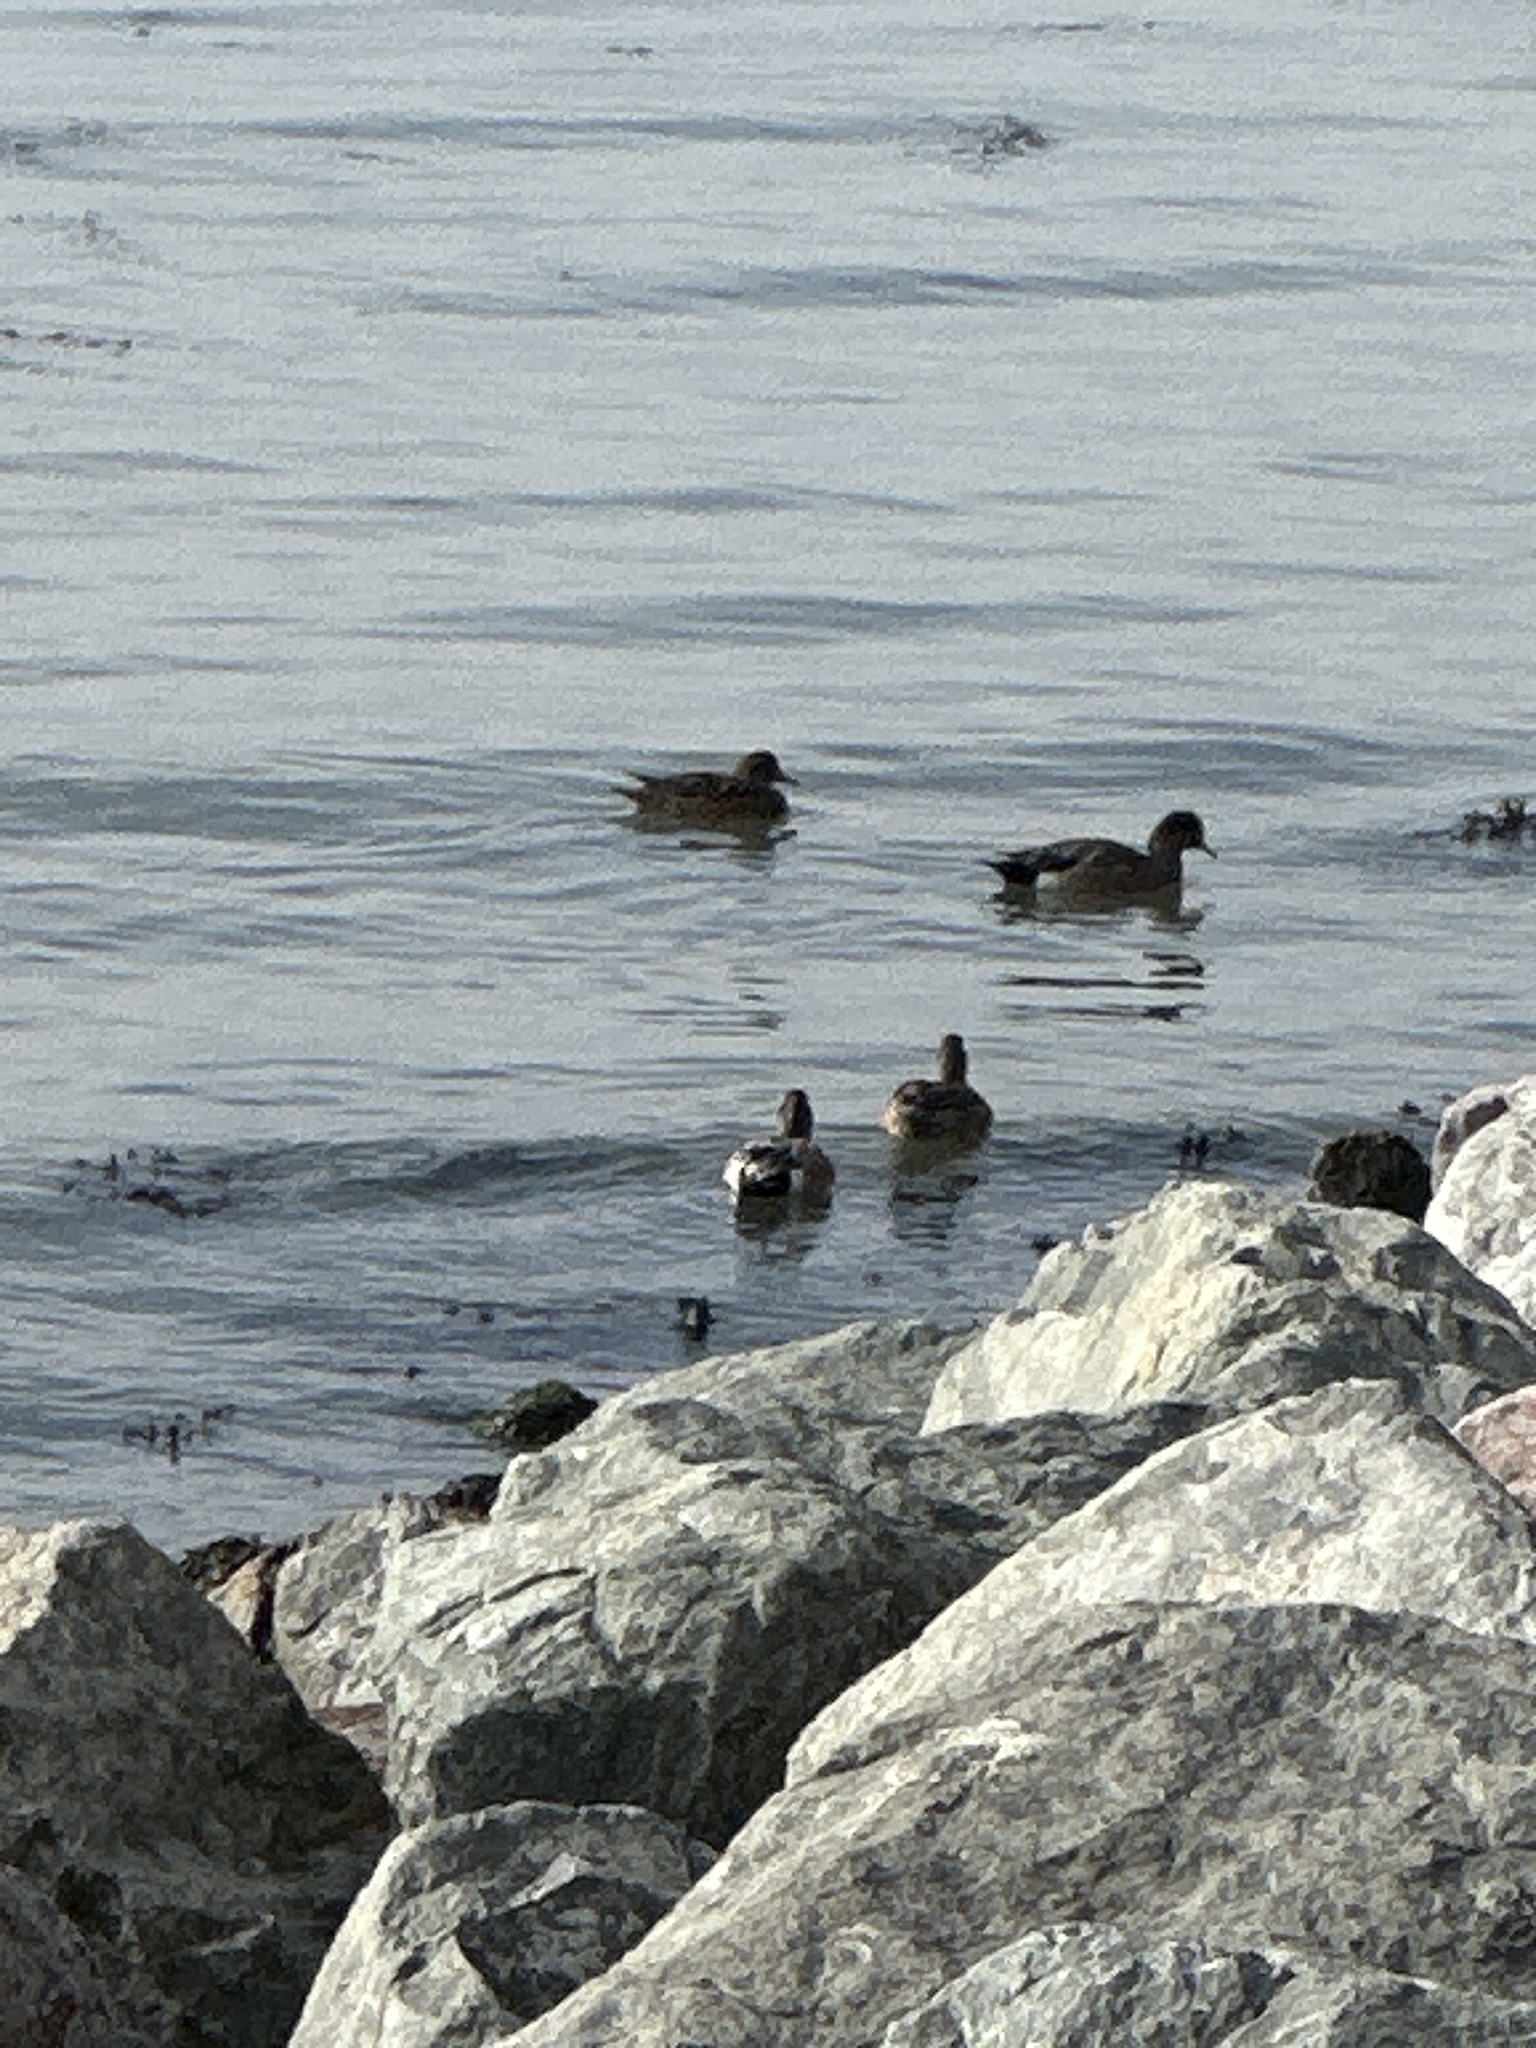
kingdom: Animalia
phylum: Chordata
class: Aves
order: Anseriformes
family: Anatidae
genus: Mareca
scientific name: Mareca americana
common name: American wigeon
